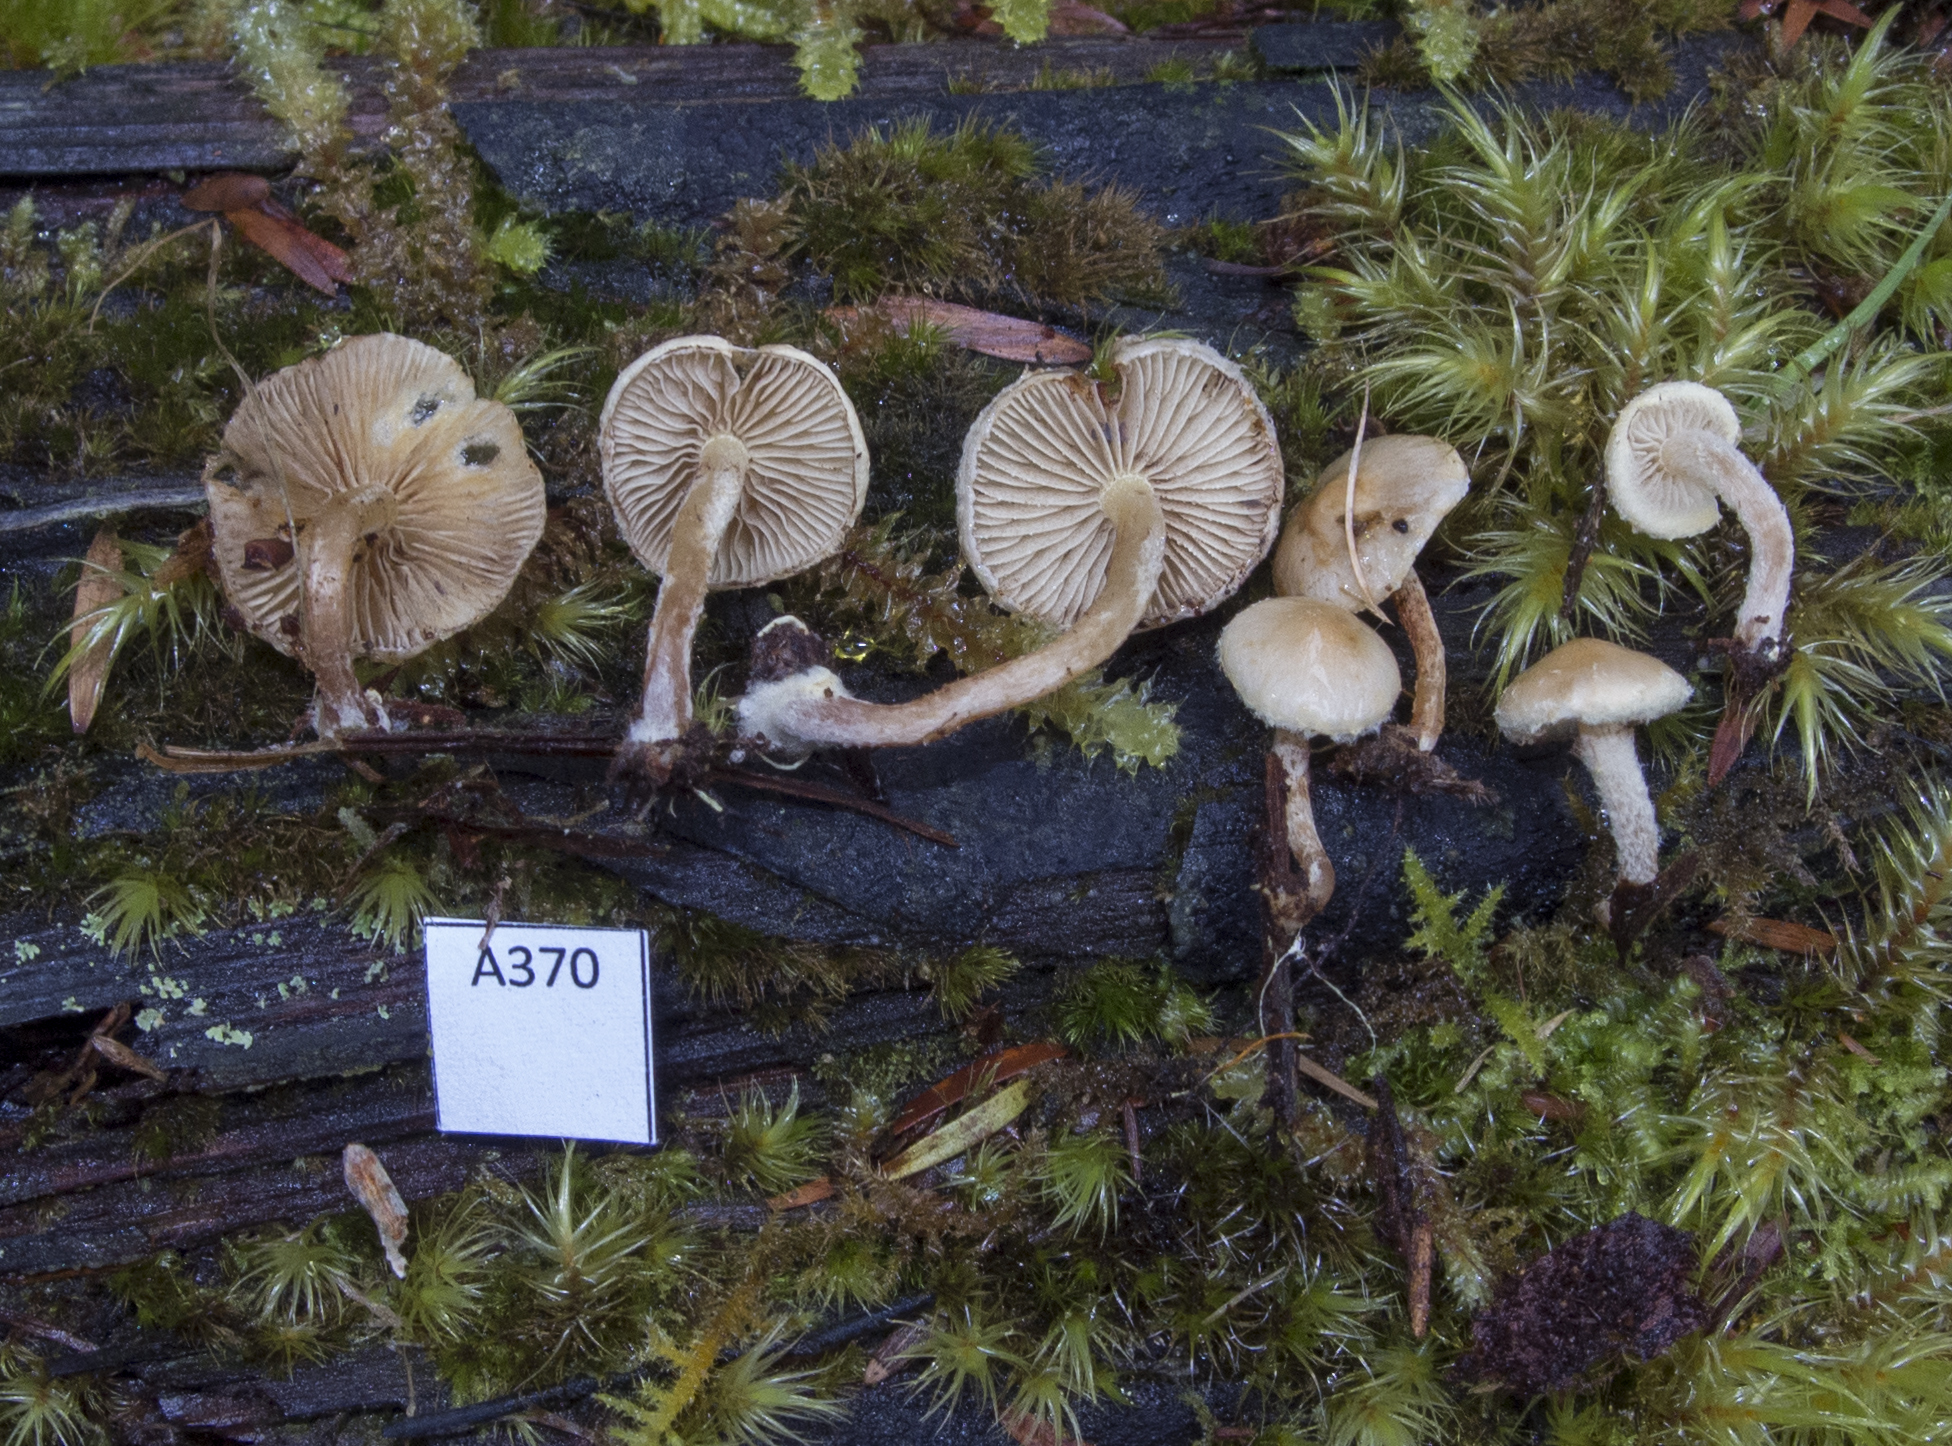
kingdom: Fungi
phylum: Basidiomycota
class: Agaricomycetes
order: Agaricales
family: Strophariaceae
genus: Pholiota
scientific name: Pholiota
